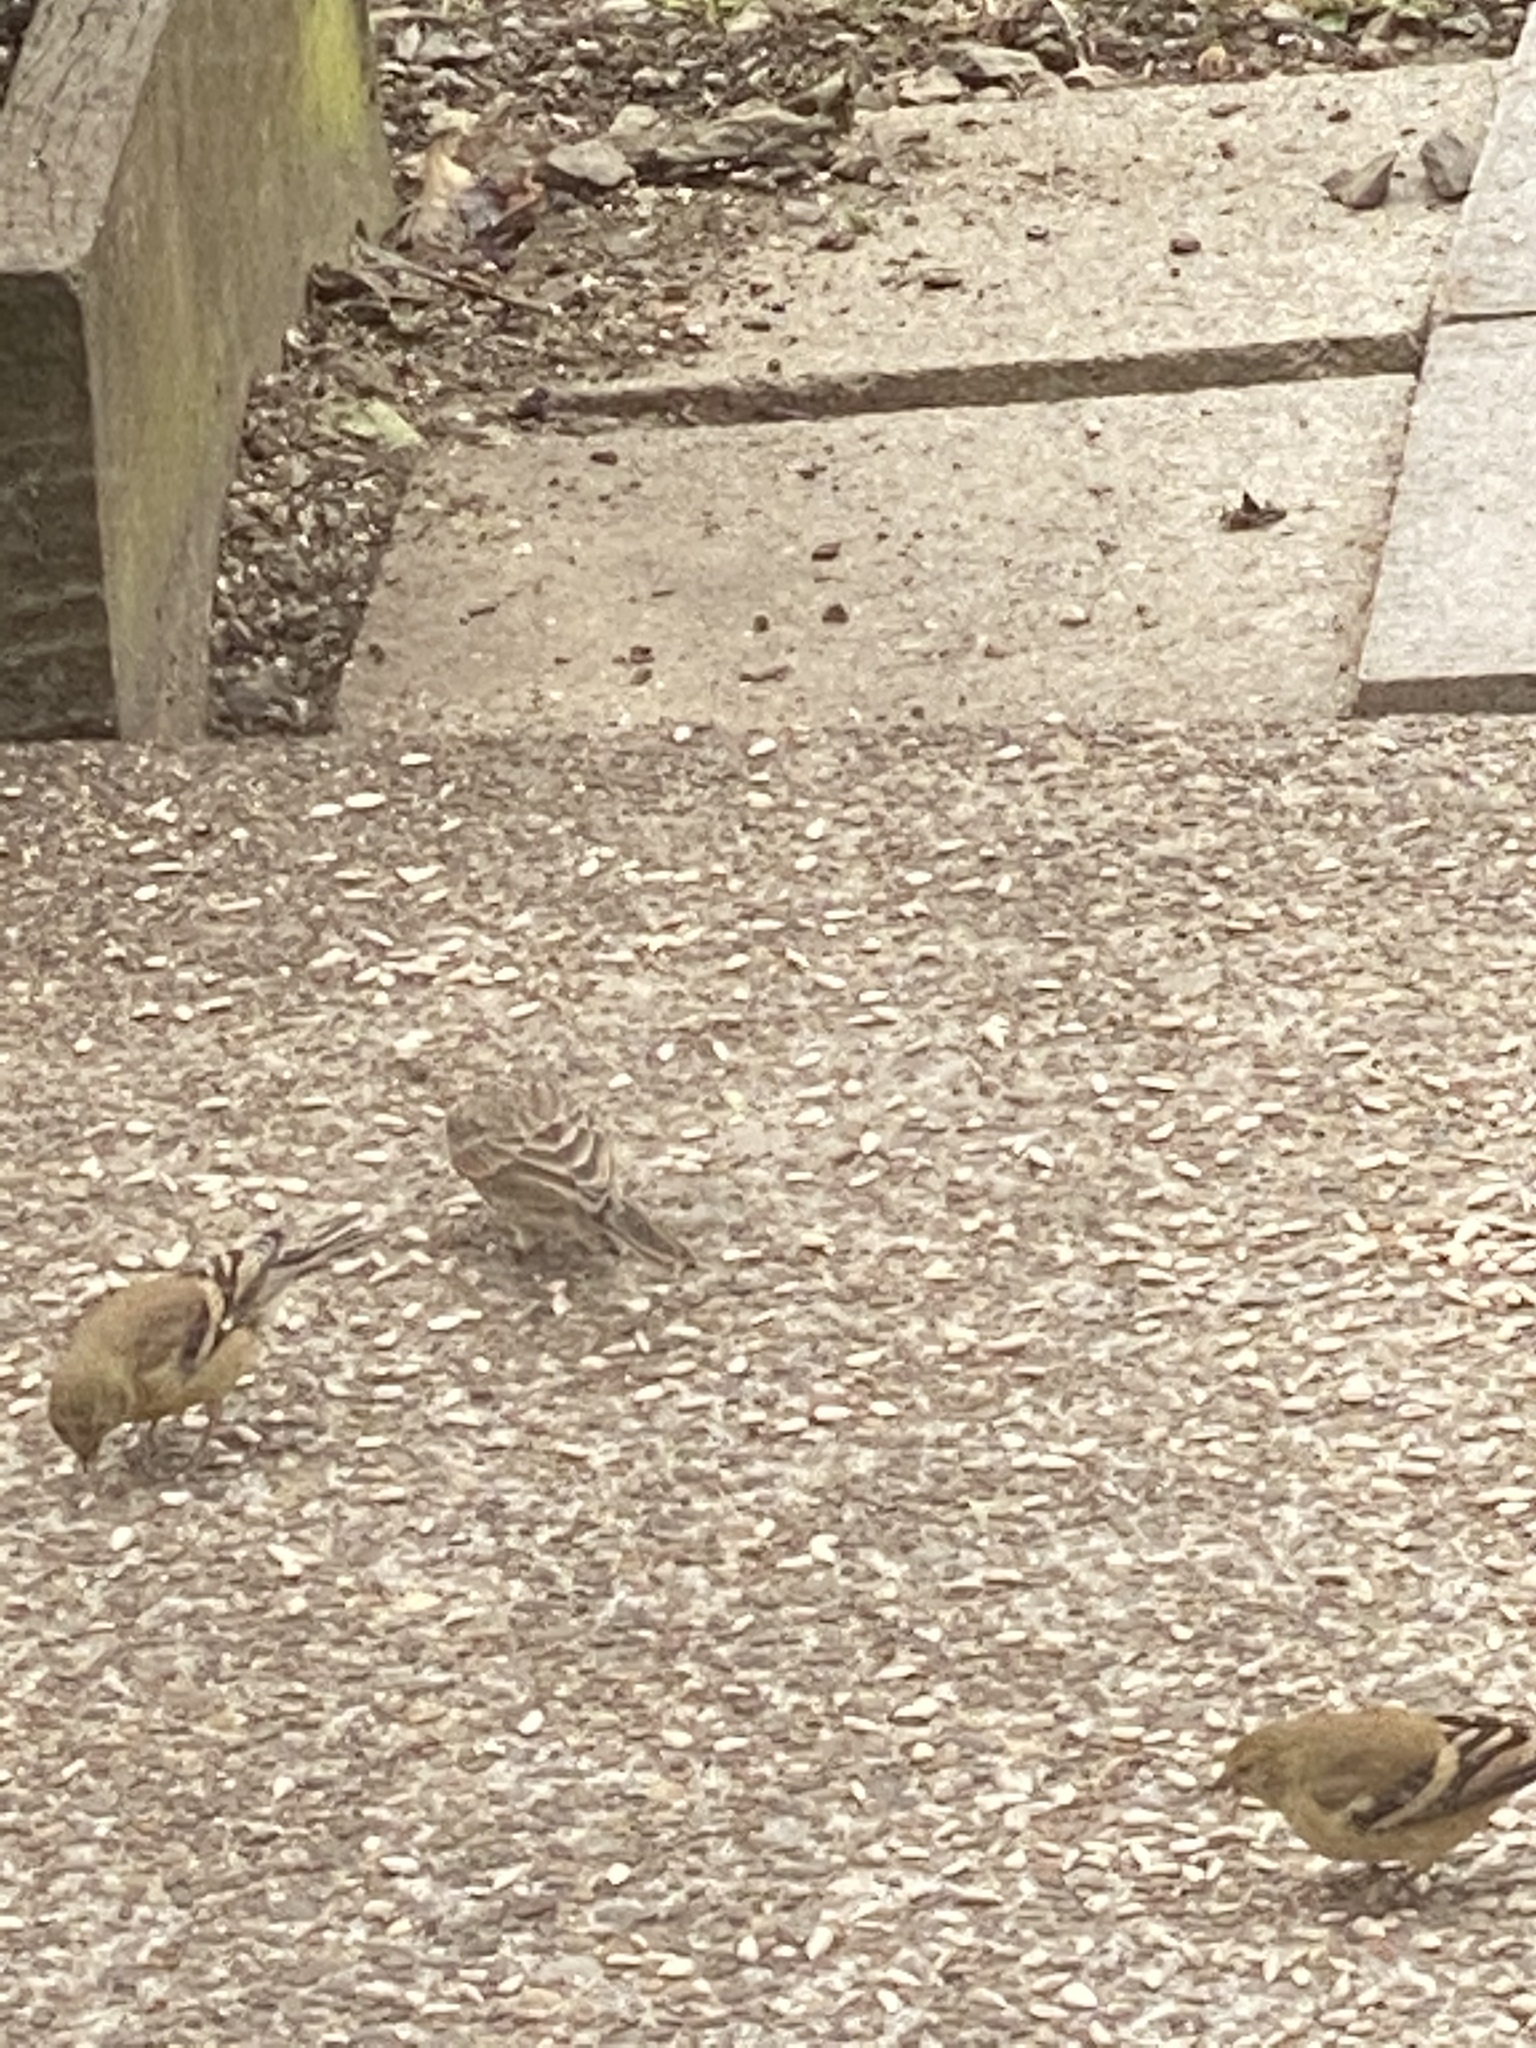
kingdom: Animalia
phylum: Chordata
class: Aves
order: Passeriformes
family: Fringillidae
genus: Haemorhous
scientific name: Haemorhous mexicanus
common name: House finch
